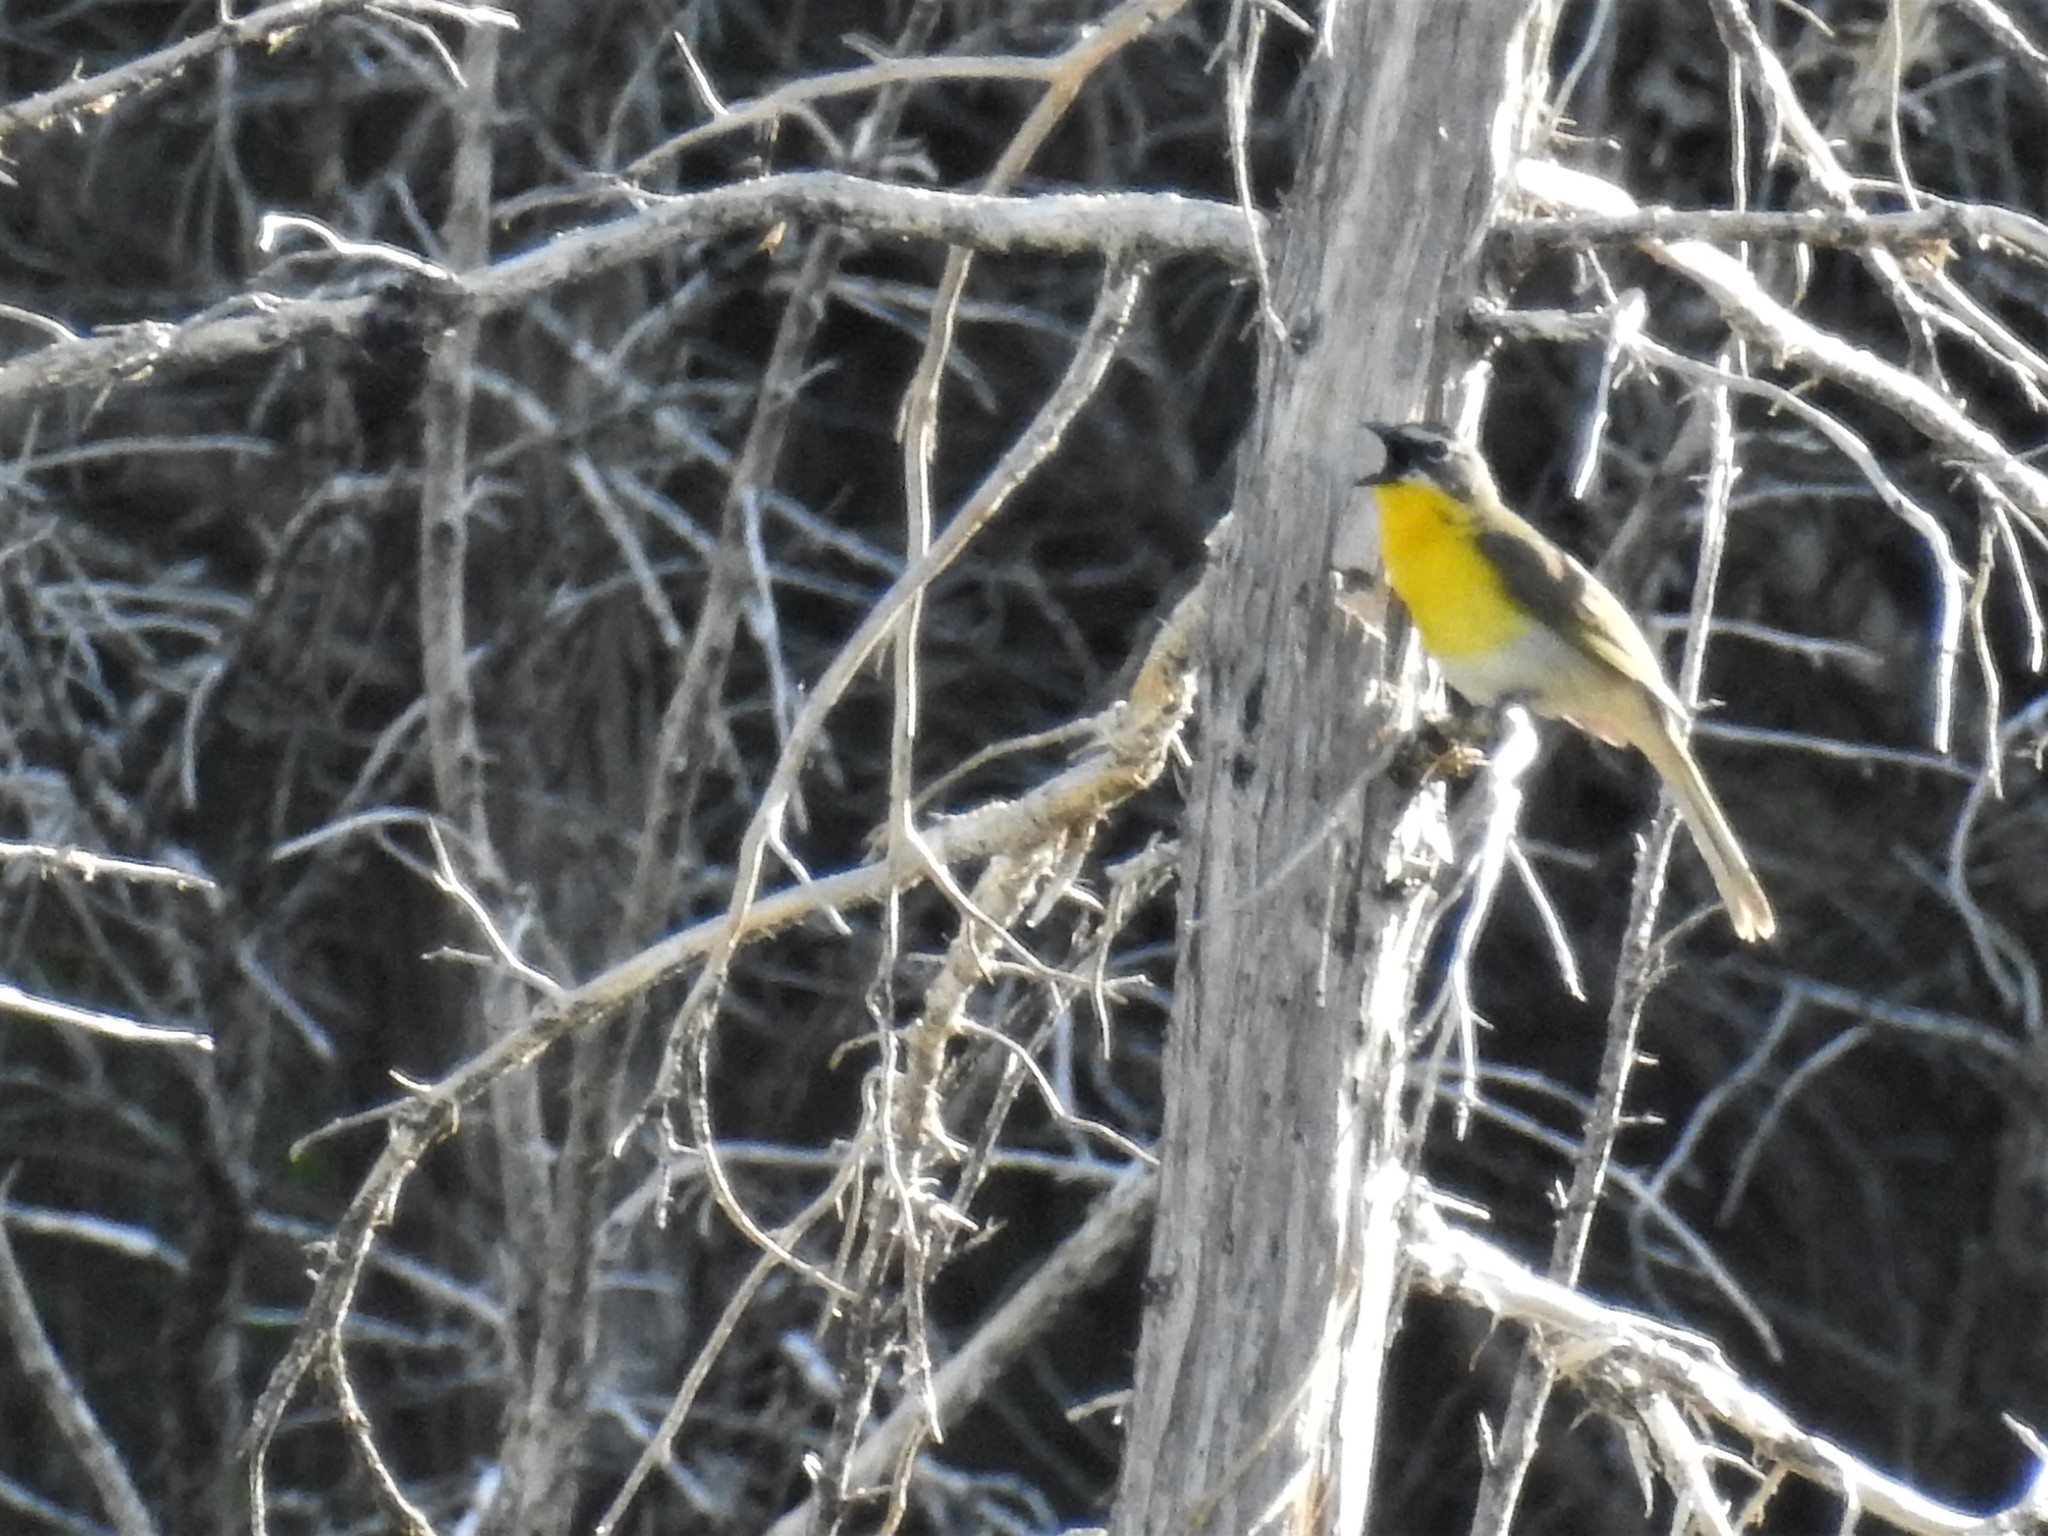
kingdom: Animalia
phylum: Chordata
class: Aves
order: Passeriformes
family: Parulidae
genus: Icteria
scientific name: Icteria virens
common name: Yellow-breasted chat
